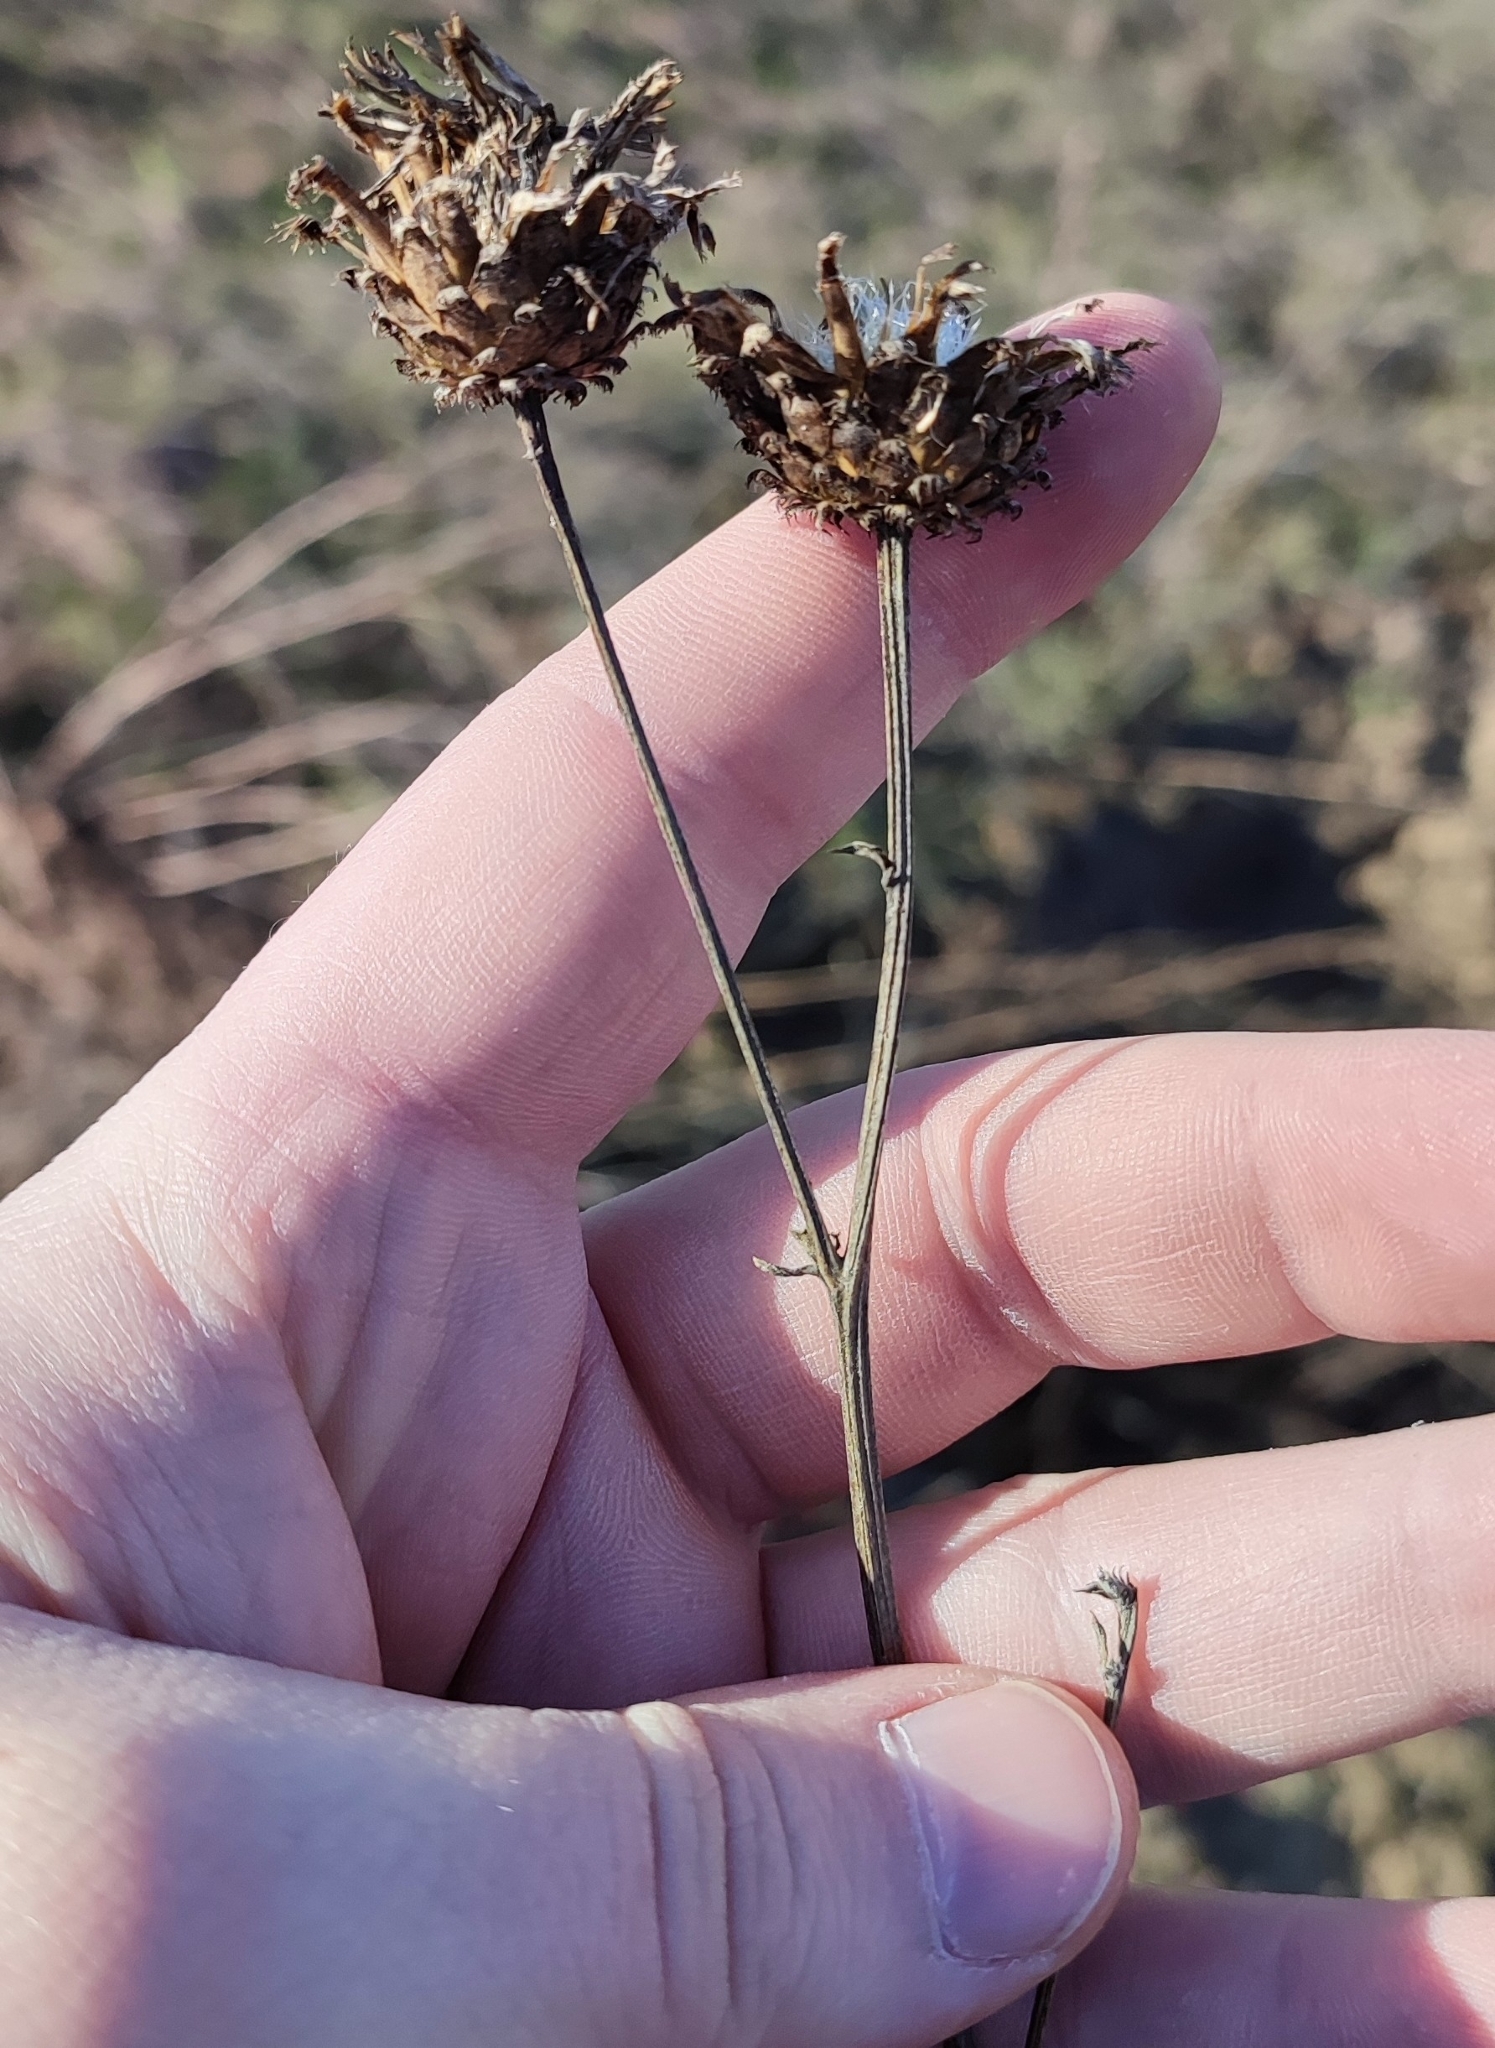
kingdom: Plantae
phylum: Tracheophyta
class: Magnoliopsida
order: Asterales
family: Asteraceae
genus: Centaurea
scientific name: Centaurea scabiosa
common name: Greater knapweed
